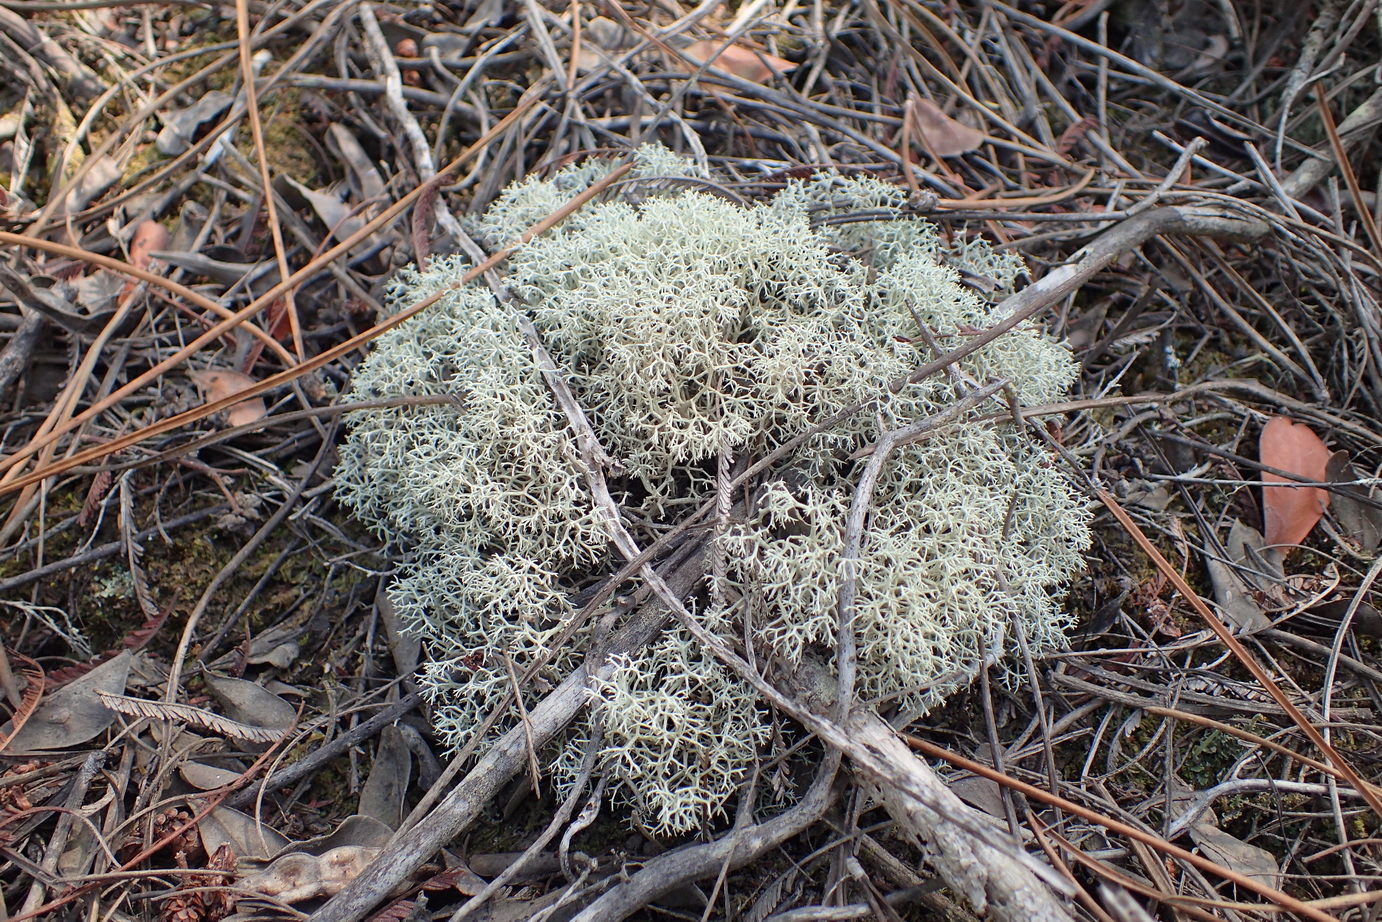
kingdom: Fungi
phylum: Ascomycota
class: Lecanoromycetes
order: Lecanorales
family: Cladoniaceae
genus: Cladonia
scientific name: Cladonia confusa
